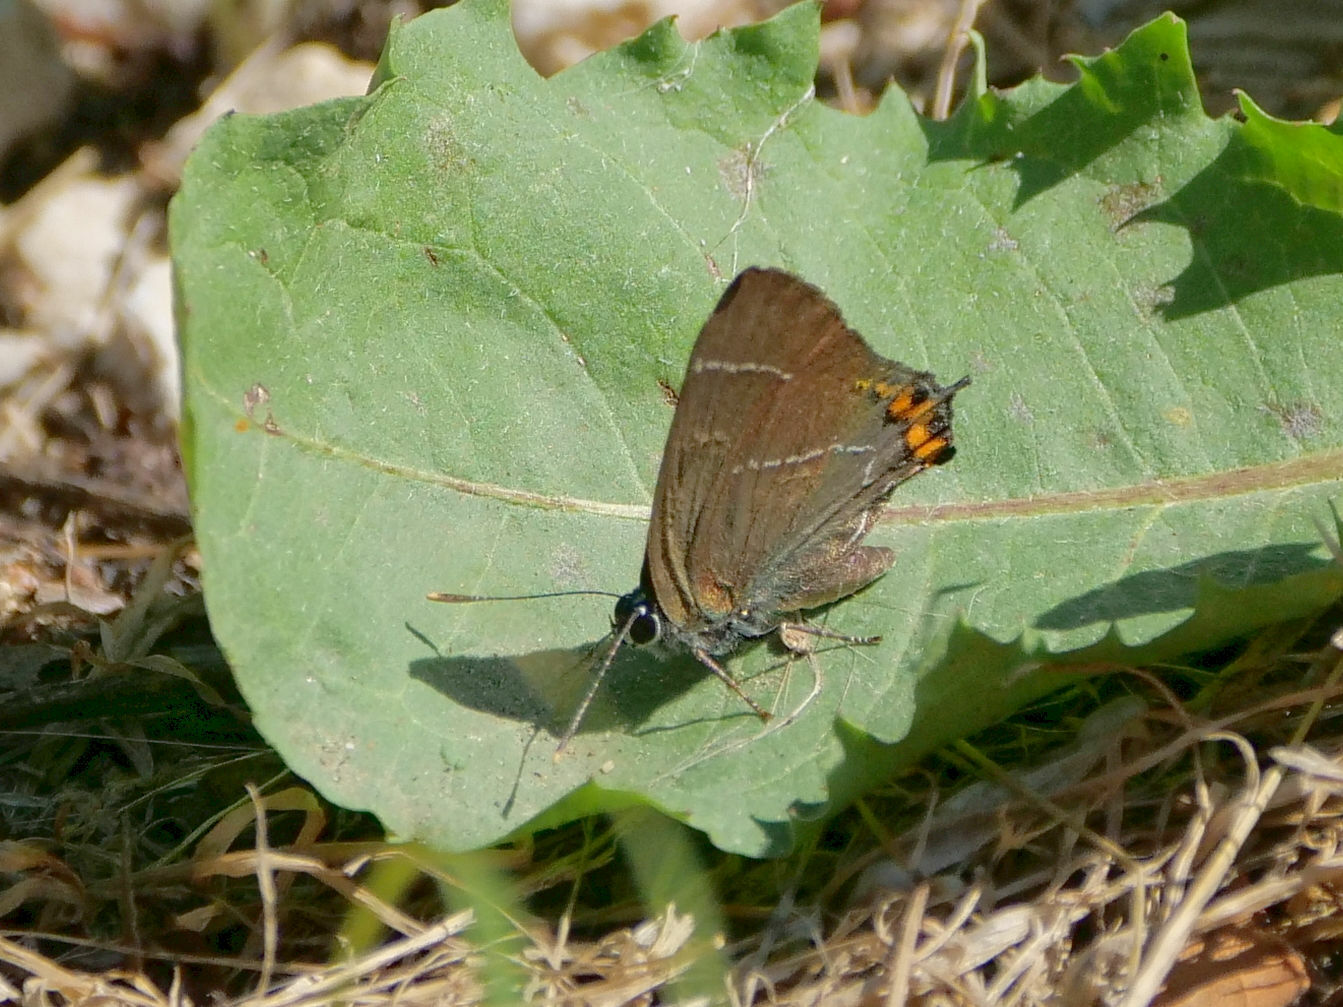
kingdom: Animalia
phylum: Arthropoda
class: Insecta
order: Lepidoptera
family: Lycaenidae
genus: Satyrium
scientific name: Satyrium w-album
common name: White-letter hairstreak
